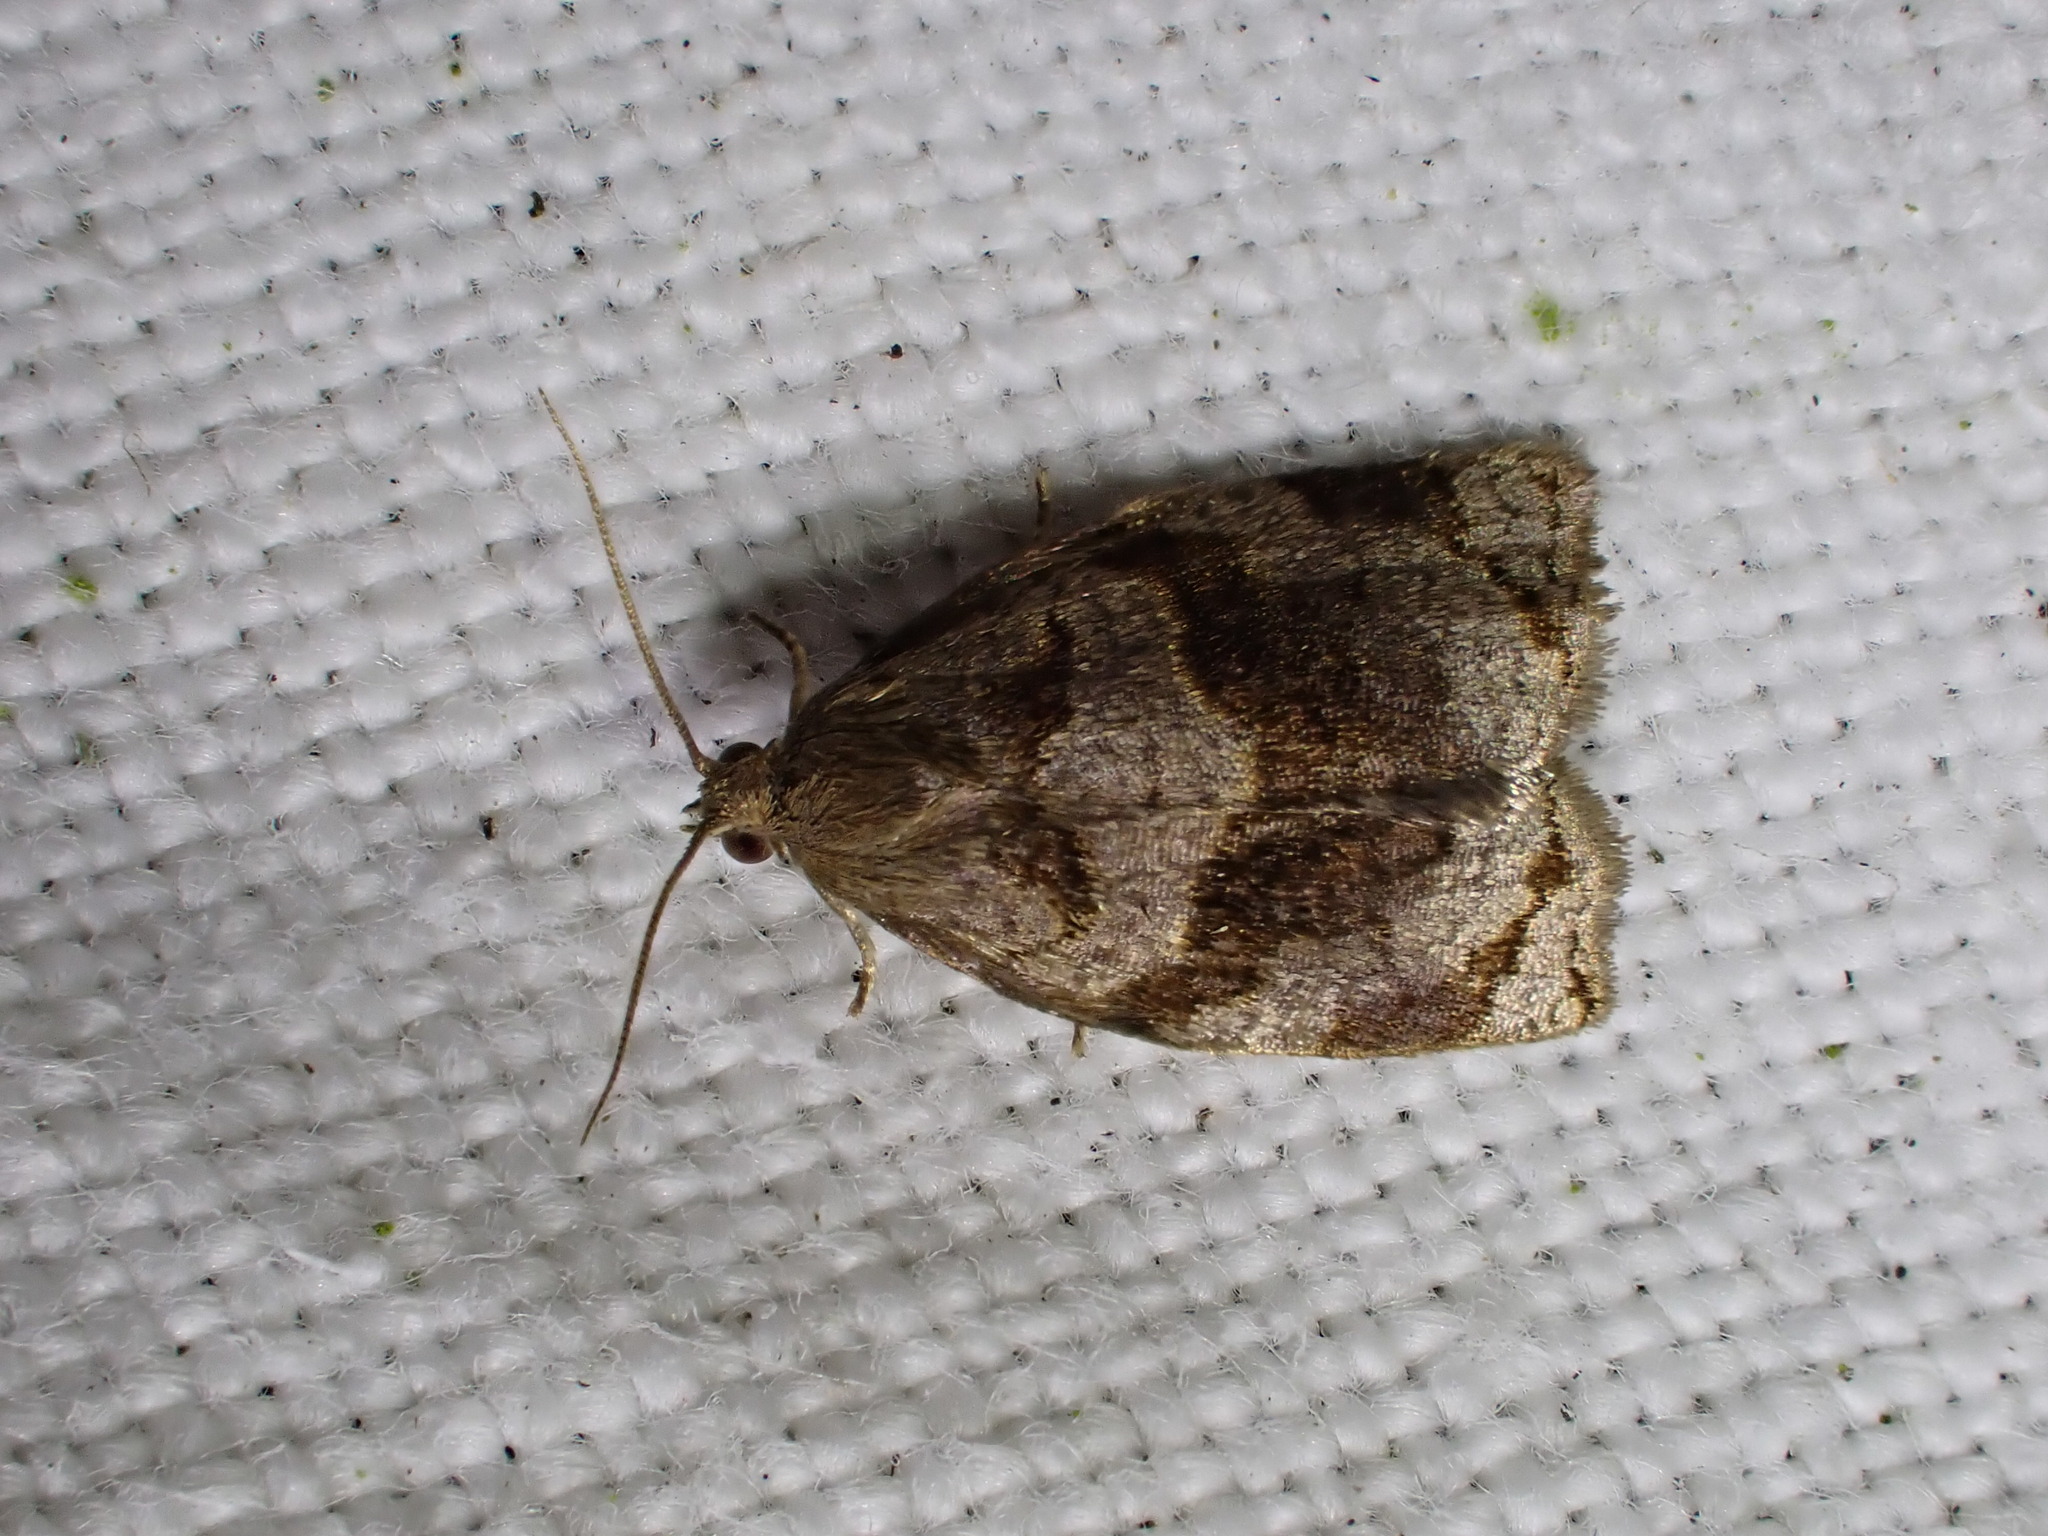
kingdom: Animalia
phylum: Arthropoda
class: Insecta
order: Lepidoptera
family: Tortricidae
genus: Archips
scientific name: Archips rosana
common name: Rose tortrix
